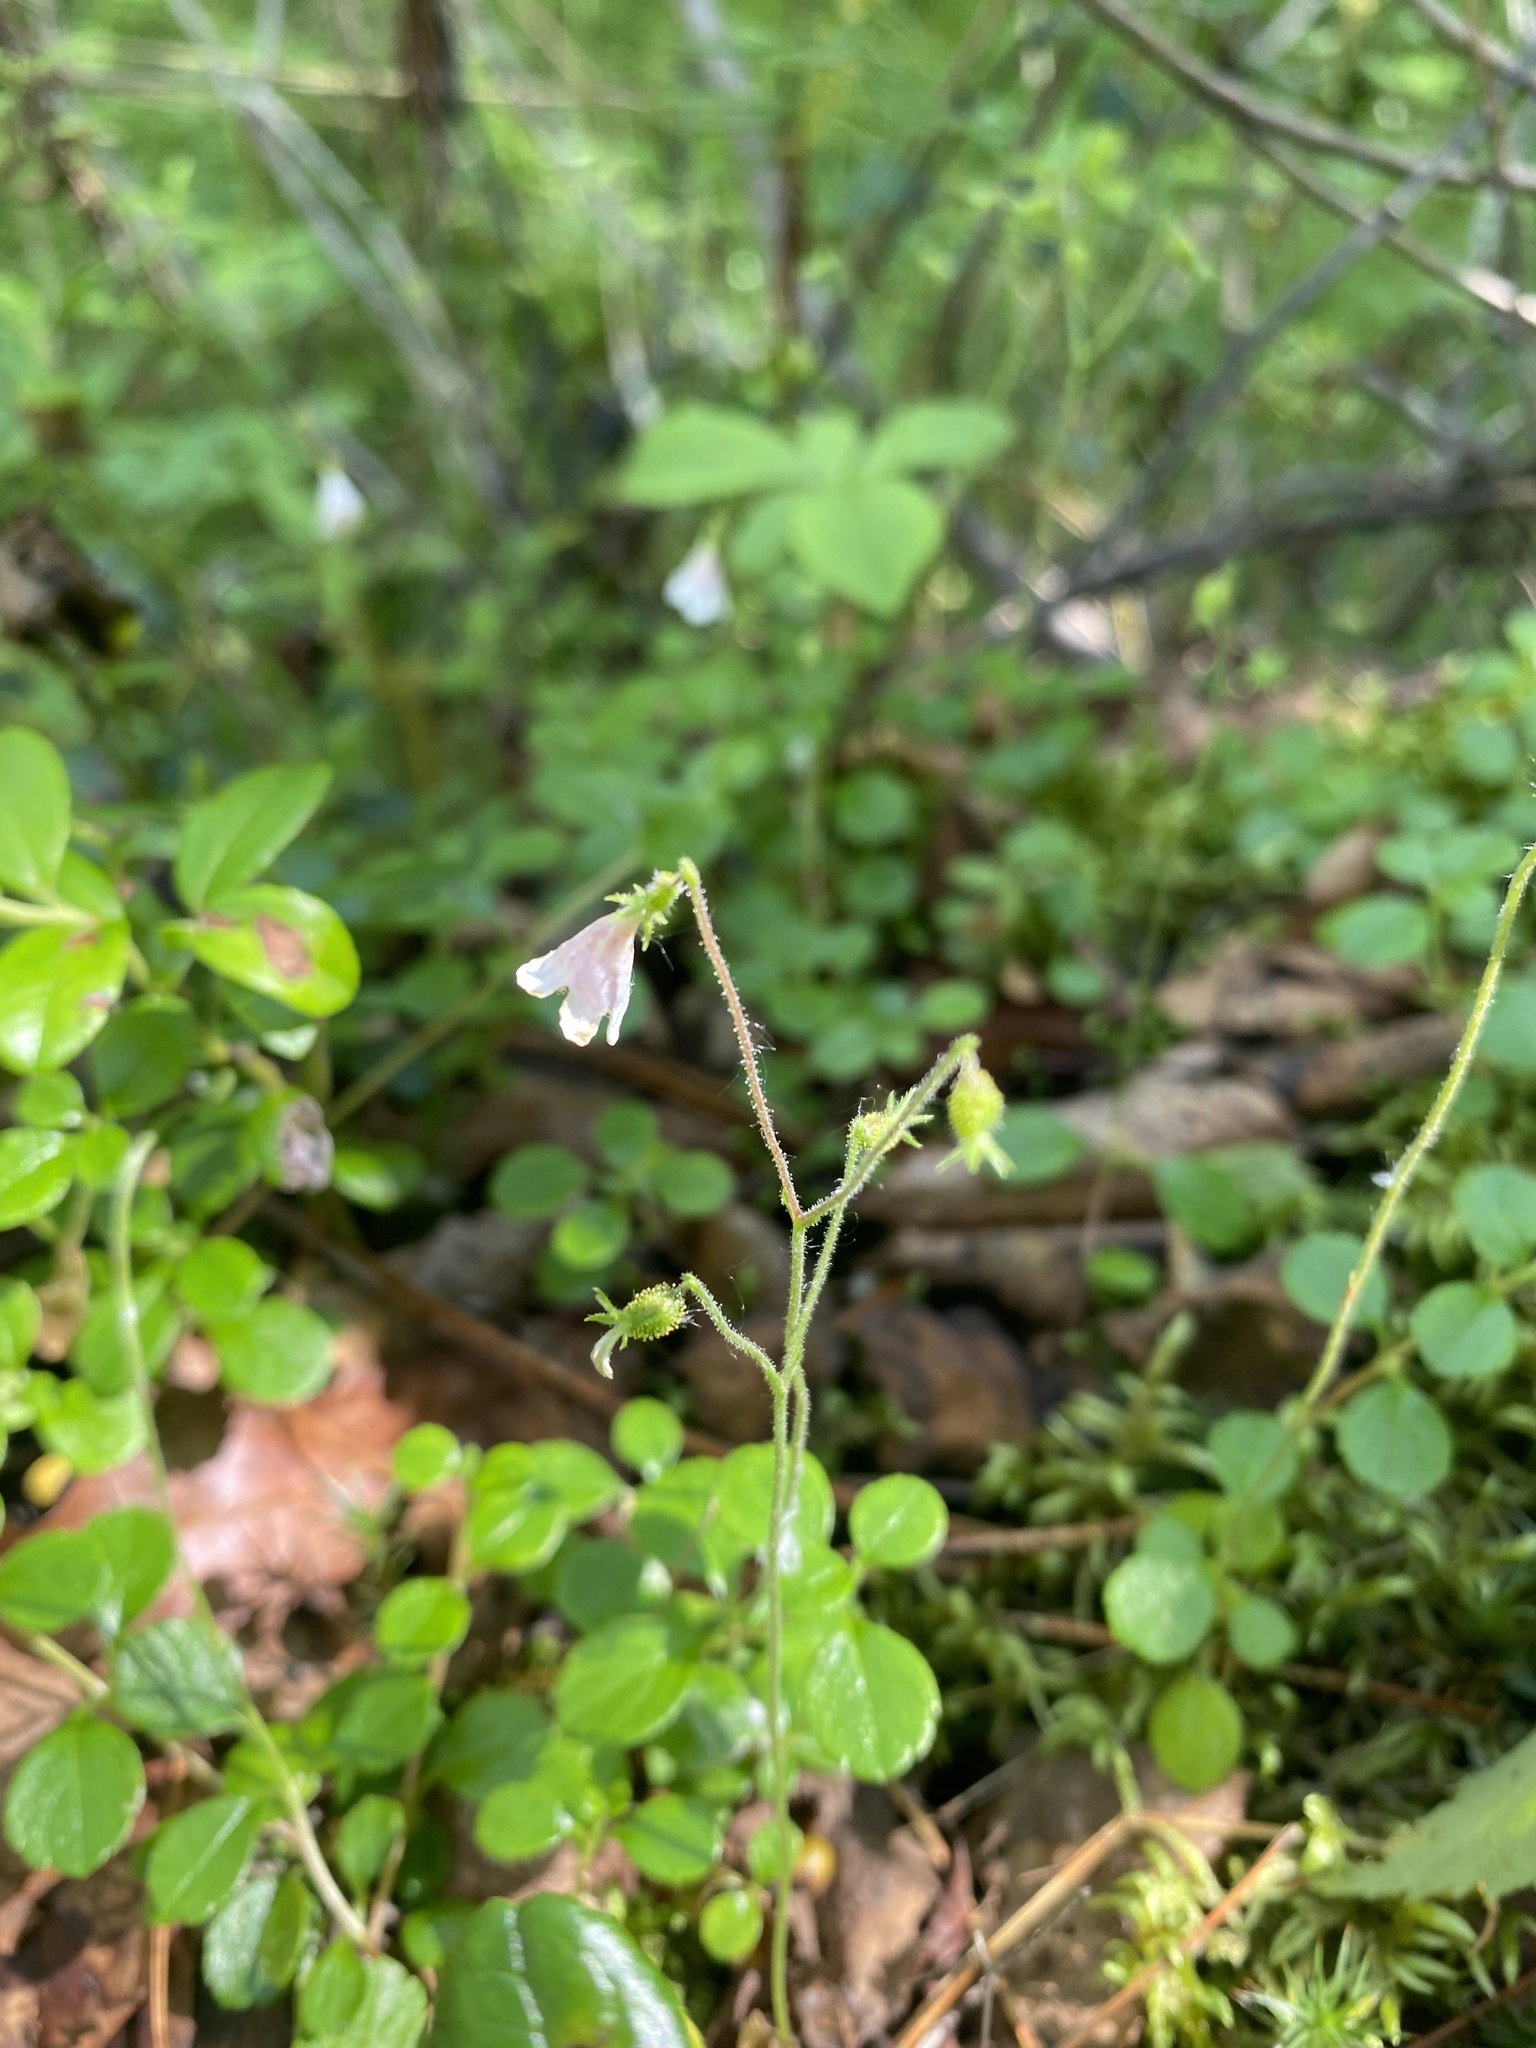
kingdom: Plantae
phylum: Tracheophyta
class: Magnoliopsida
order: Dipsacales
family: Caprifoliaceae
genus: Linnaea
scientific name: Linnaea borealis
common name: Twinflower
